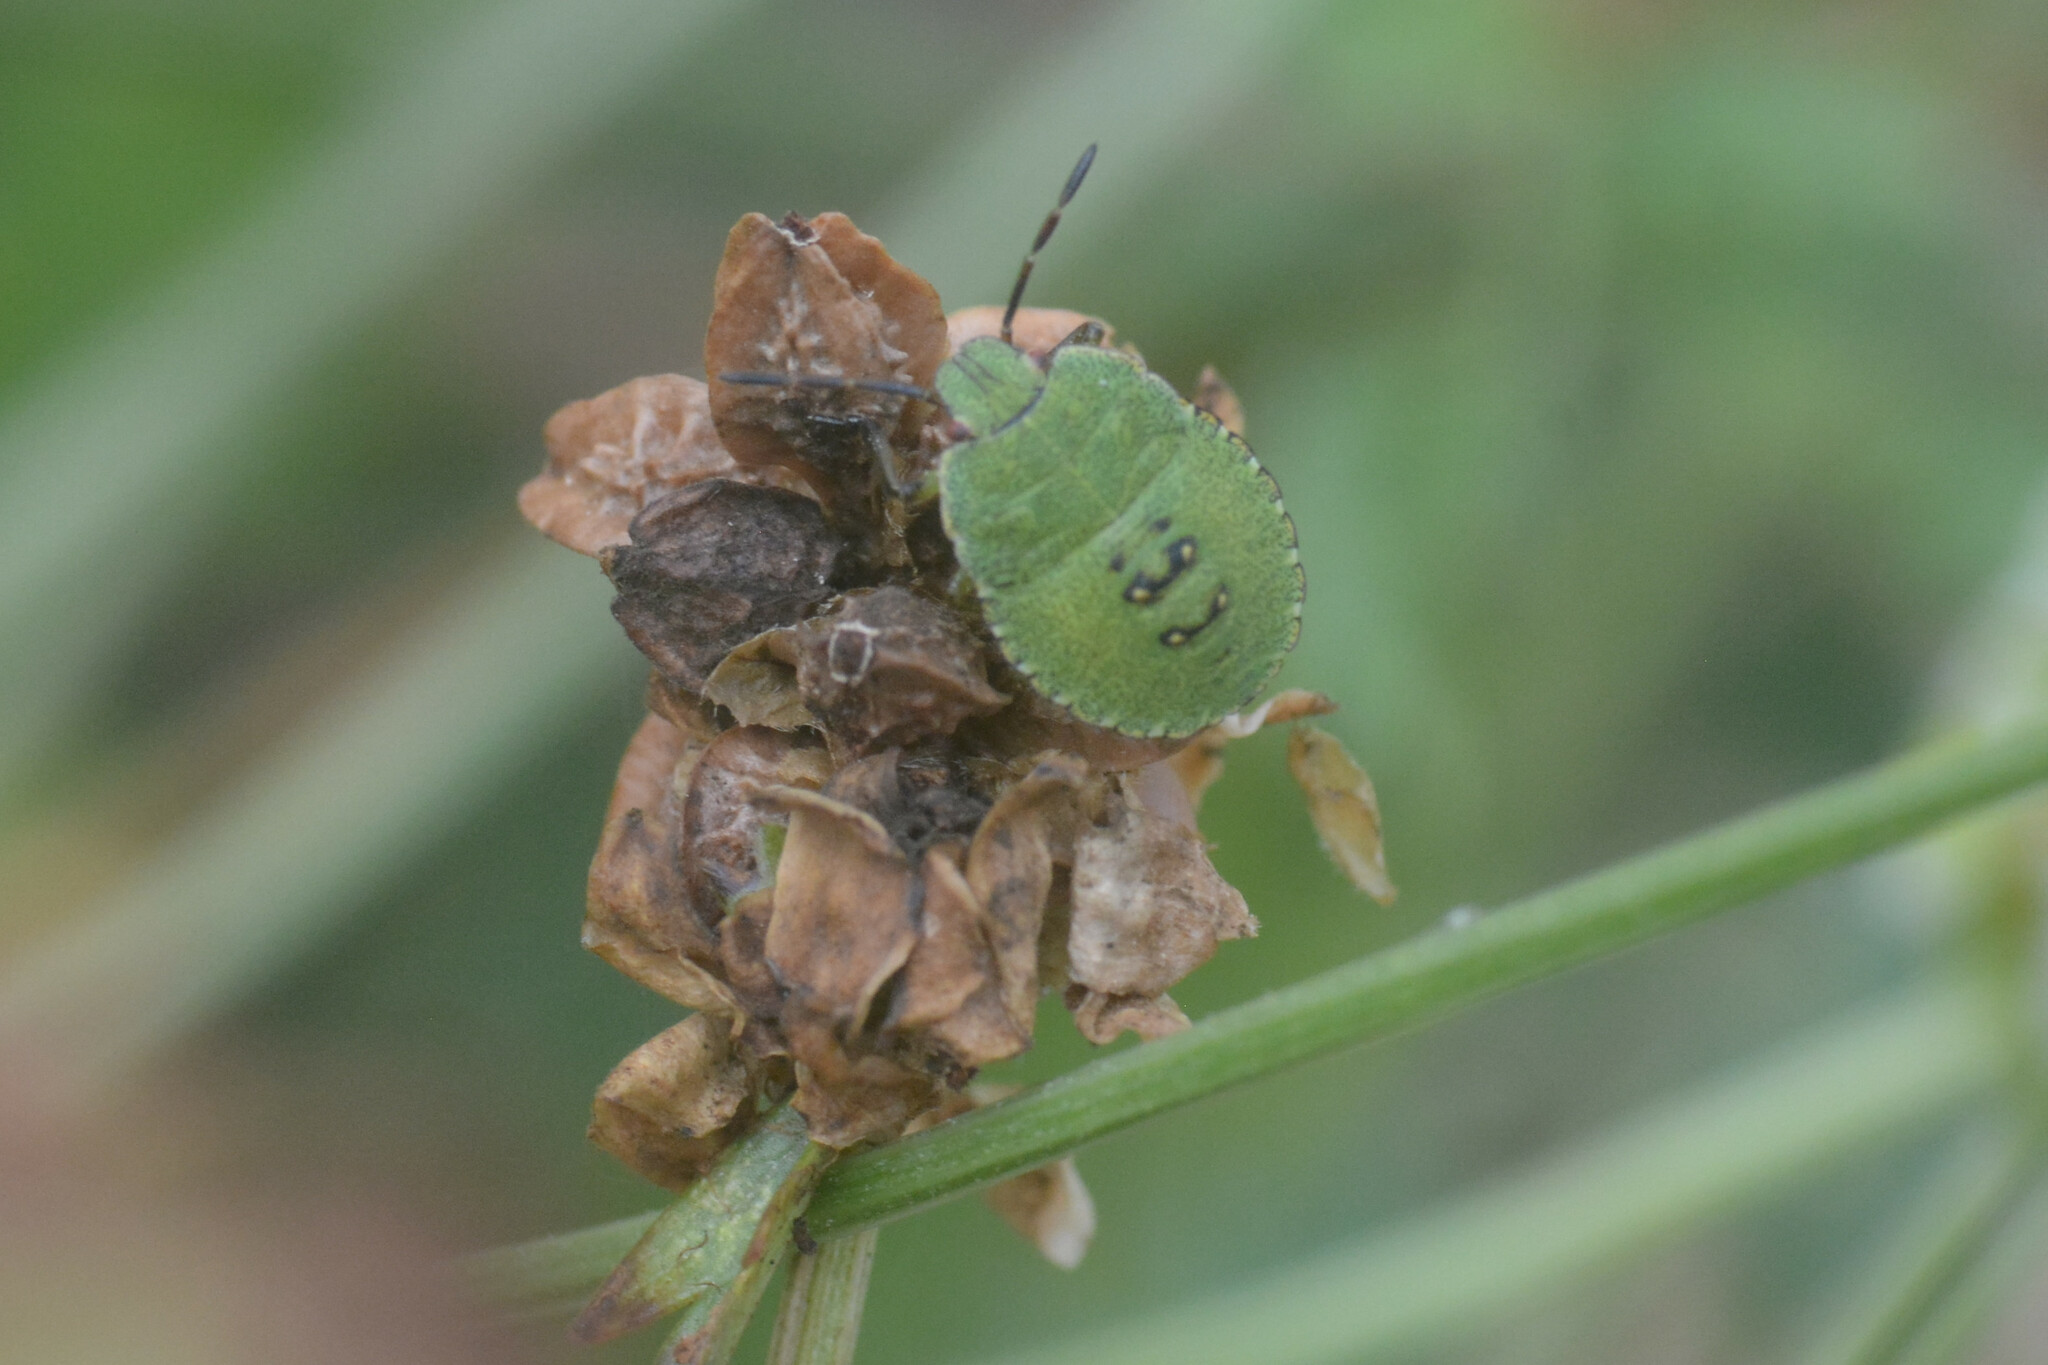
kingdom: Animalia
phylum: Arthropoda
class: Insecta
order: Hemiptera
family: Pentatomidae
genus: Palomena
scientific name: Palomena prasina
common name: Green shieldbug
